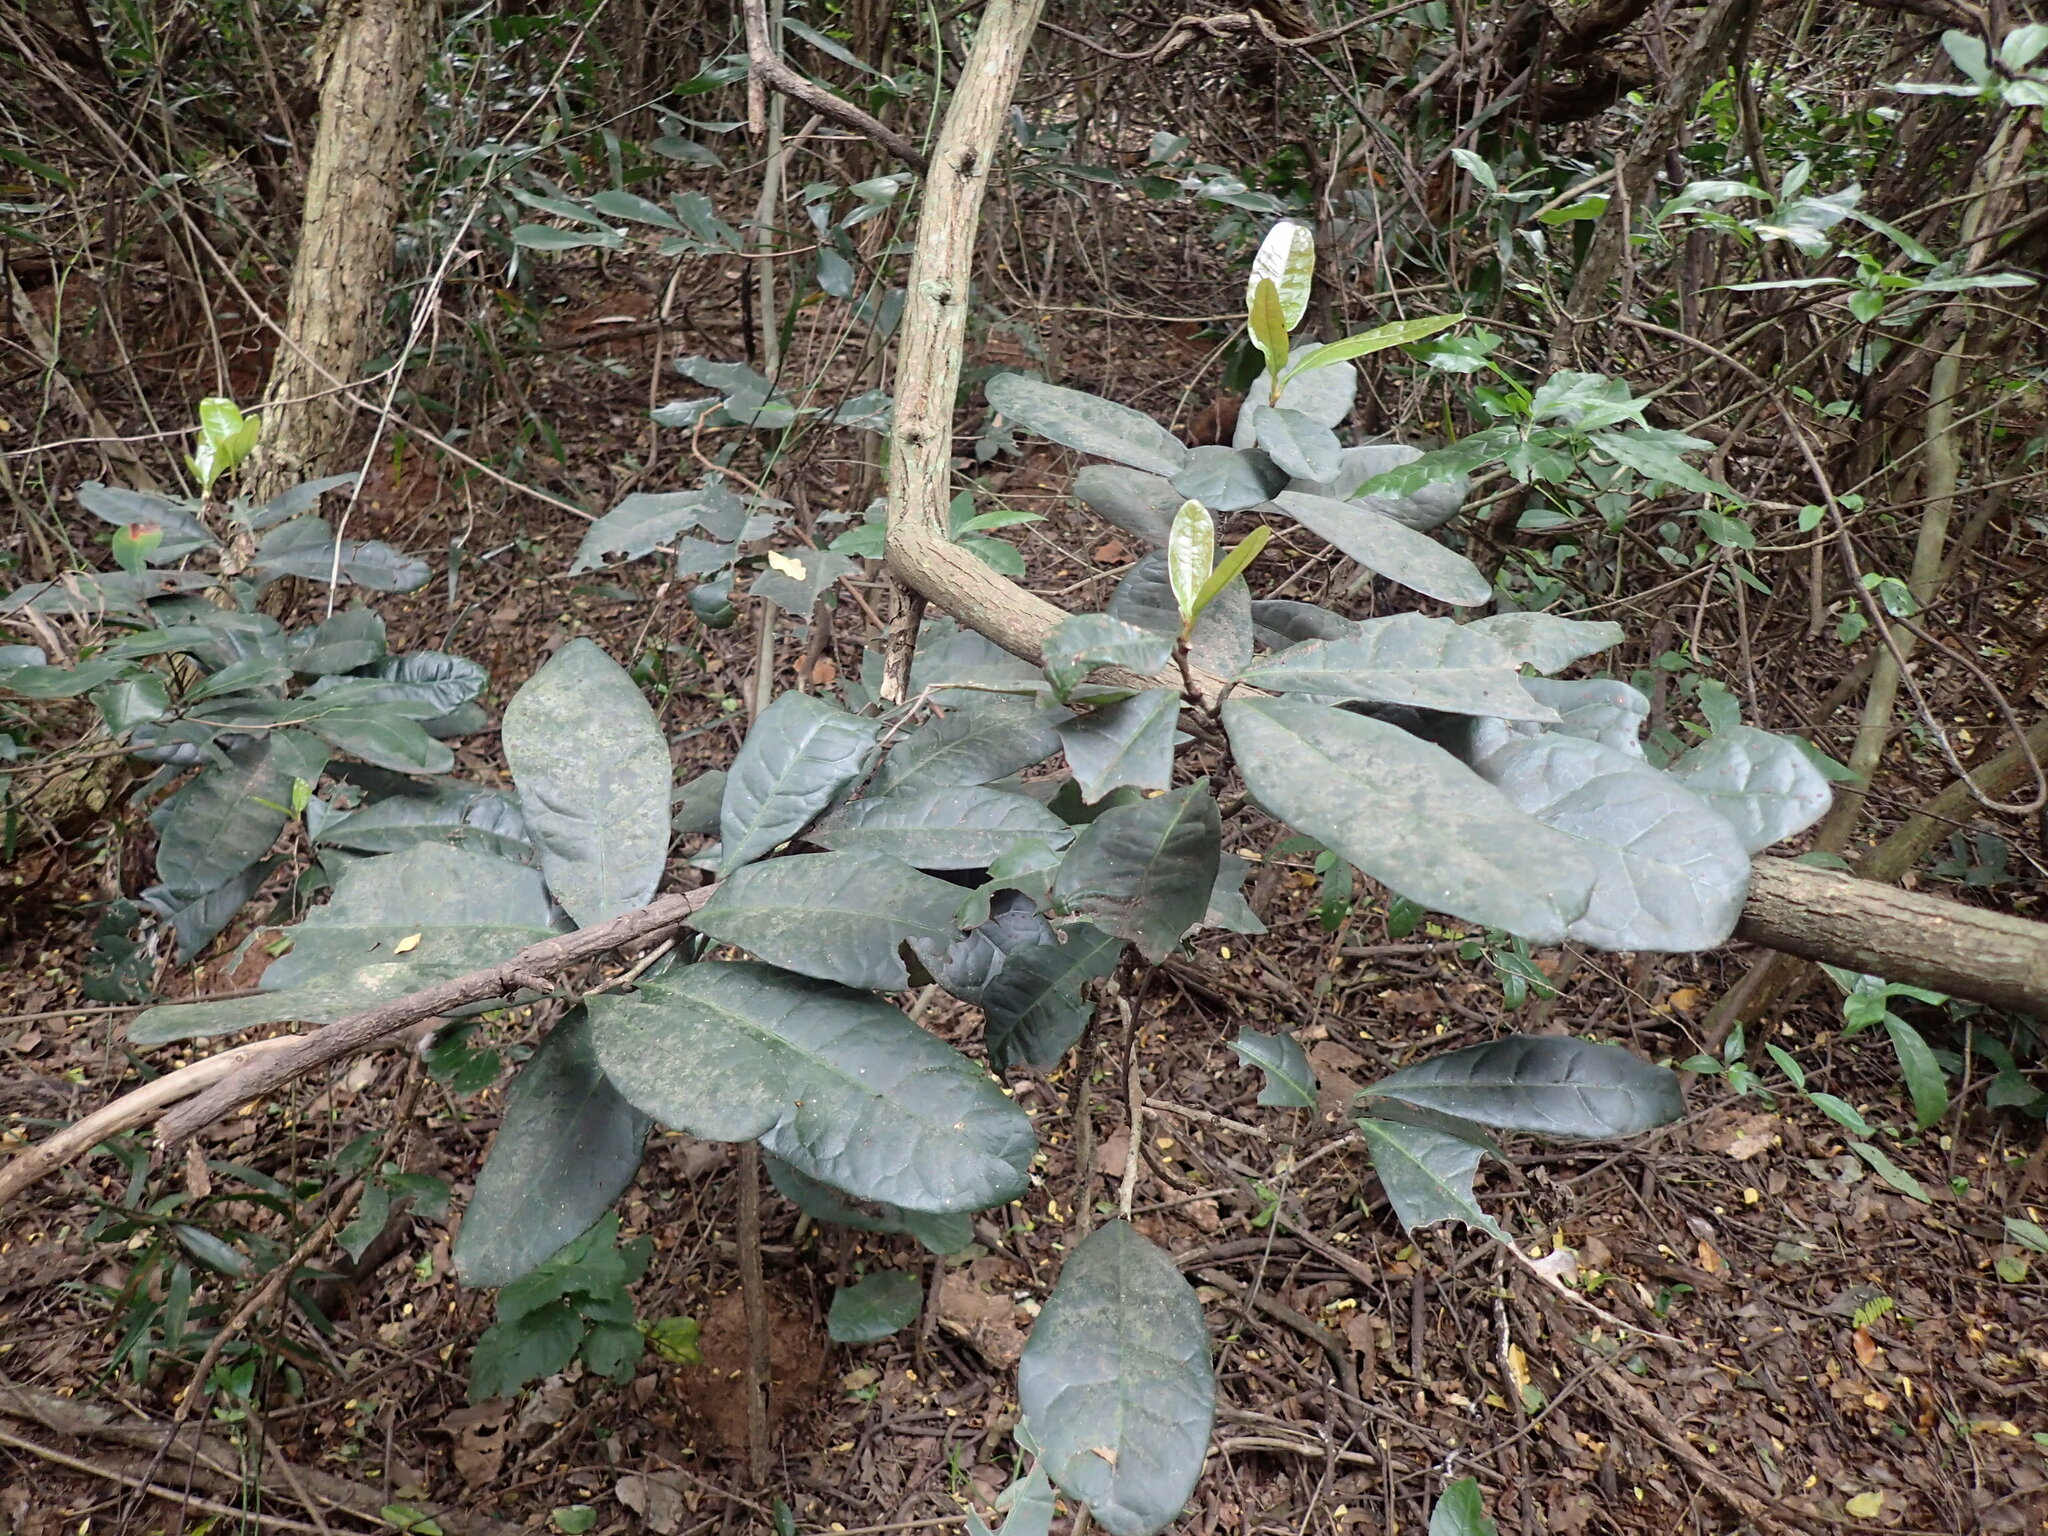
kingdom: Plantae
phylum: Tracheophyta
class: Magnoliopsida
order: Malpighiales
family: Malpighiaceae
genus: Acridocarpus
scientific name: Acridocarpus natalitius
